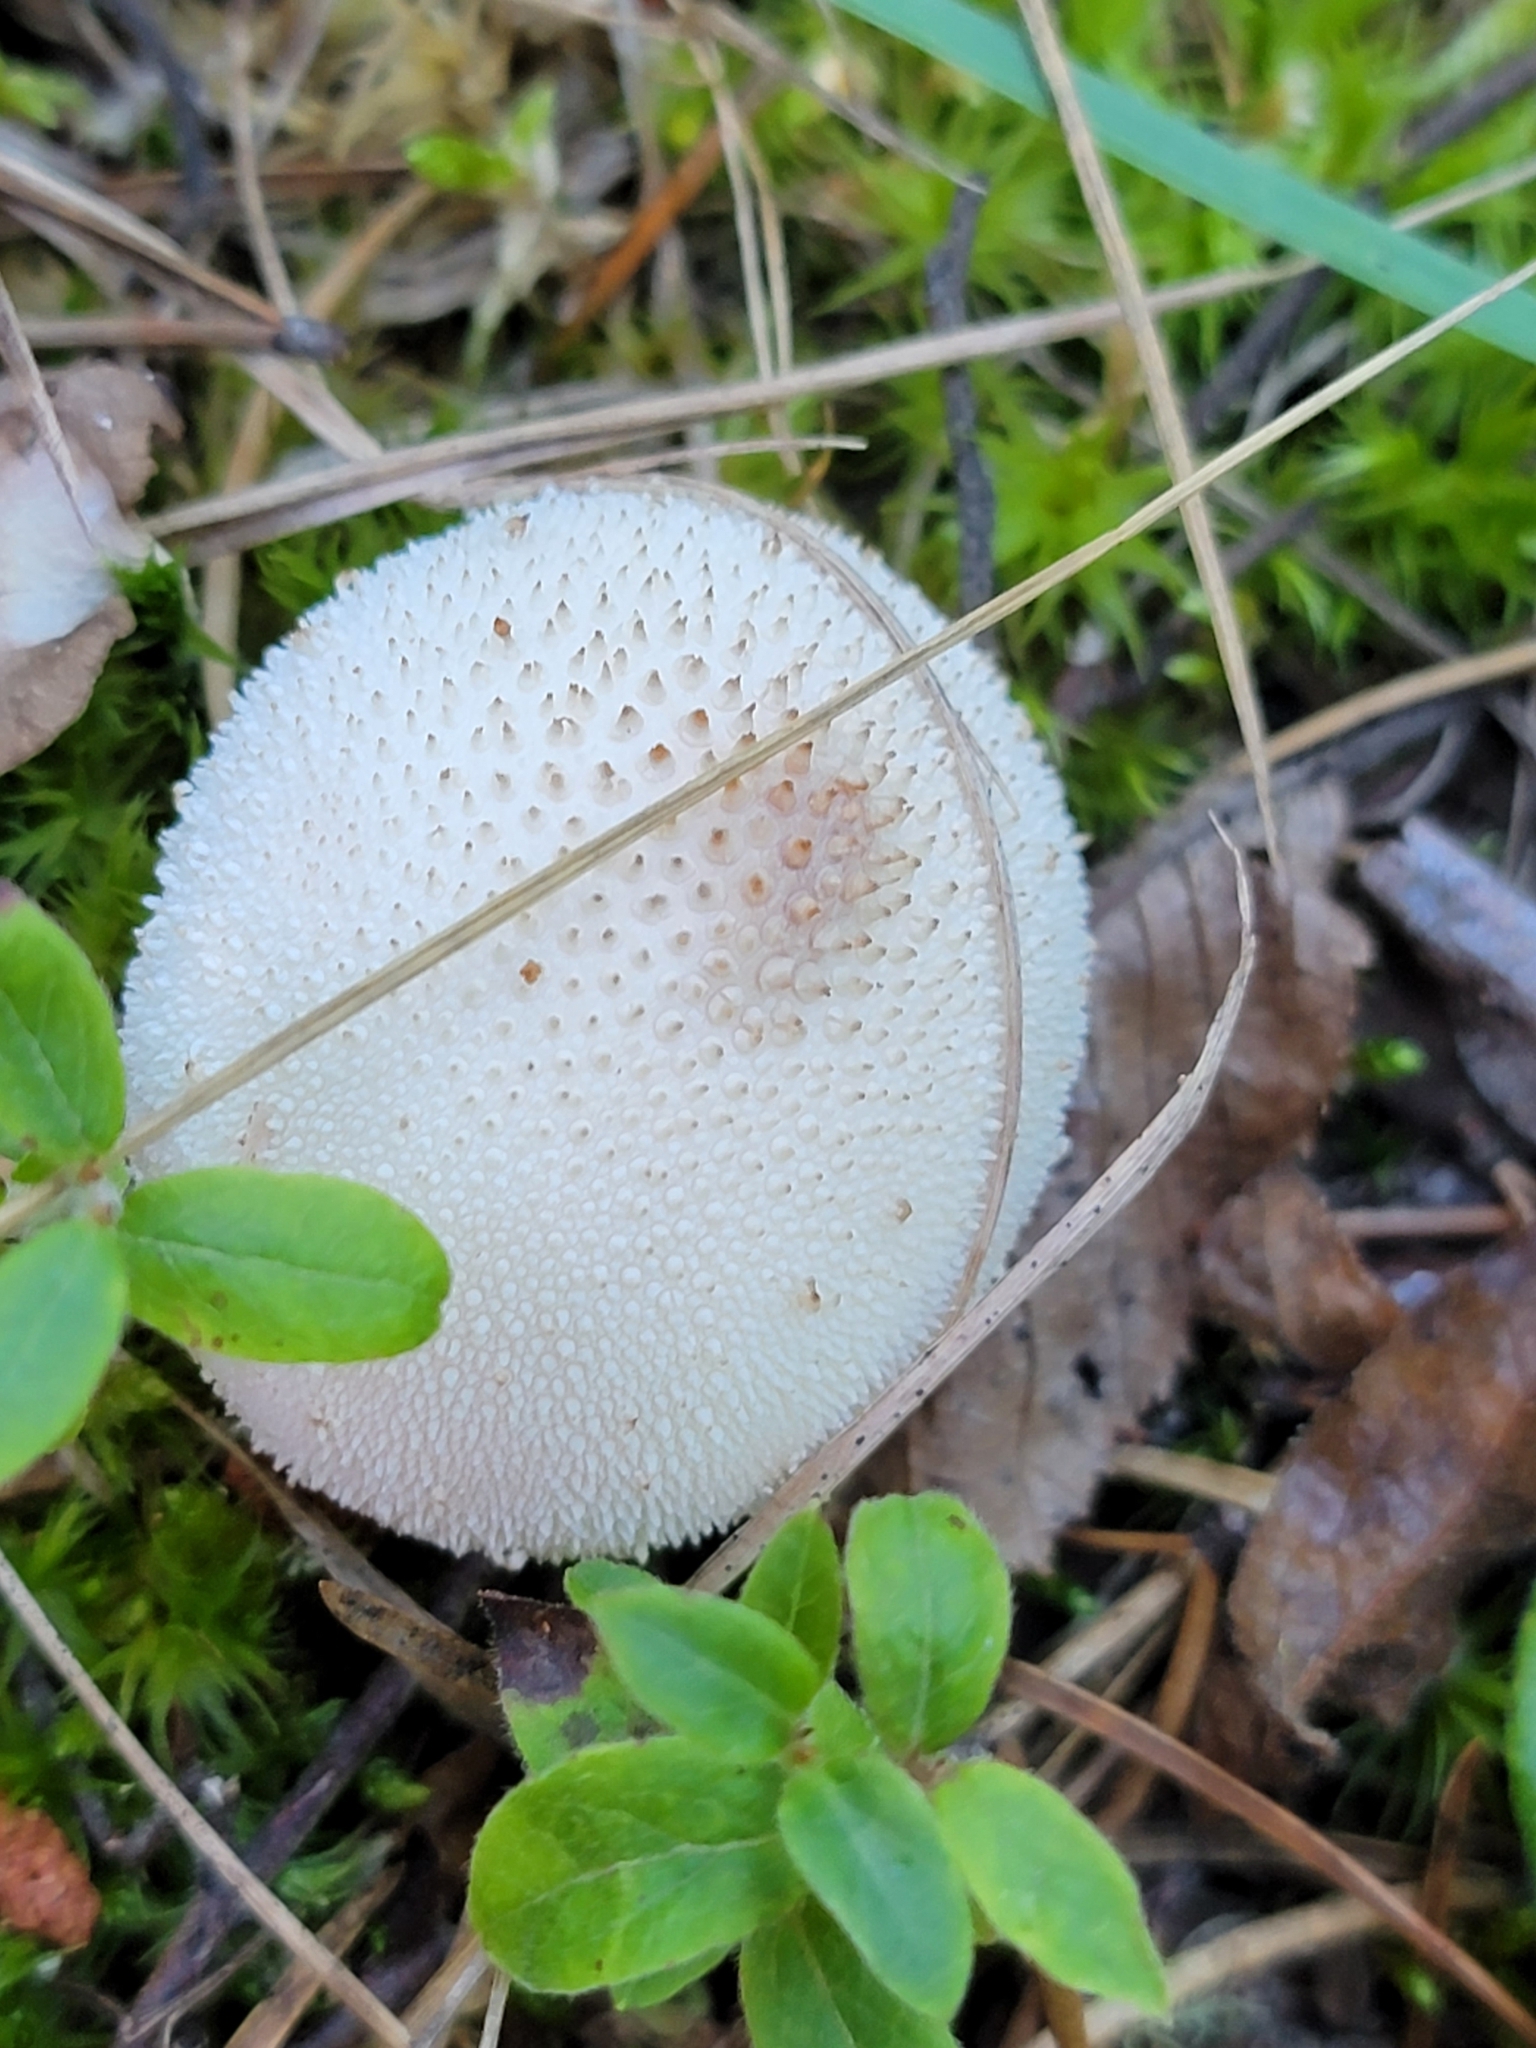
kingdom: Fungi
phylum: Basidiomycota
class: Agaricomycetes
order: Agaricales
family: Lycoperdaceae
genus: Lycoperdon
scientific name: Lycoperdon perlatum
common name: Common puffball
